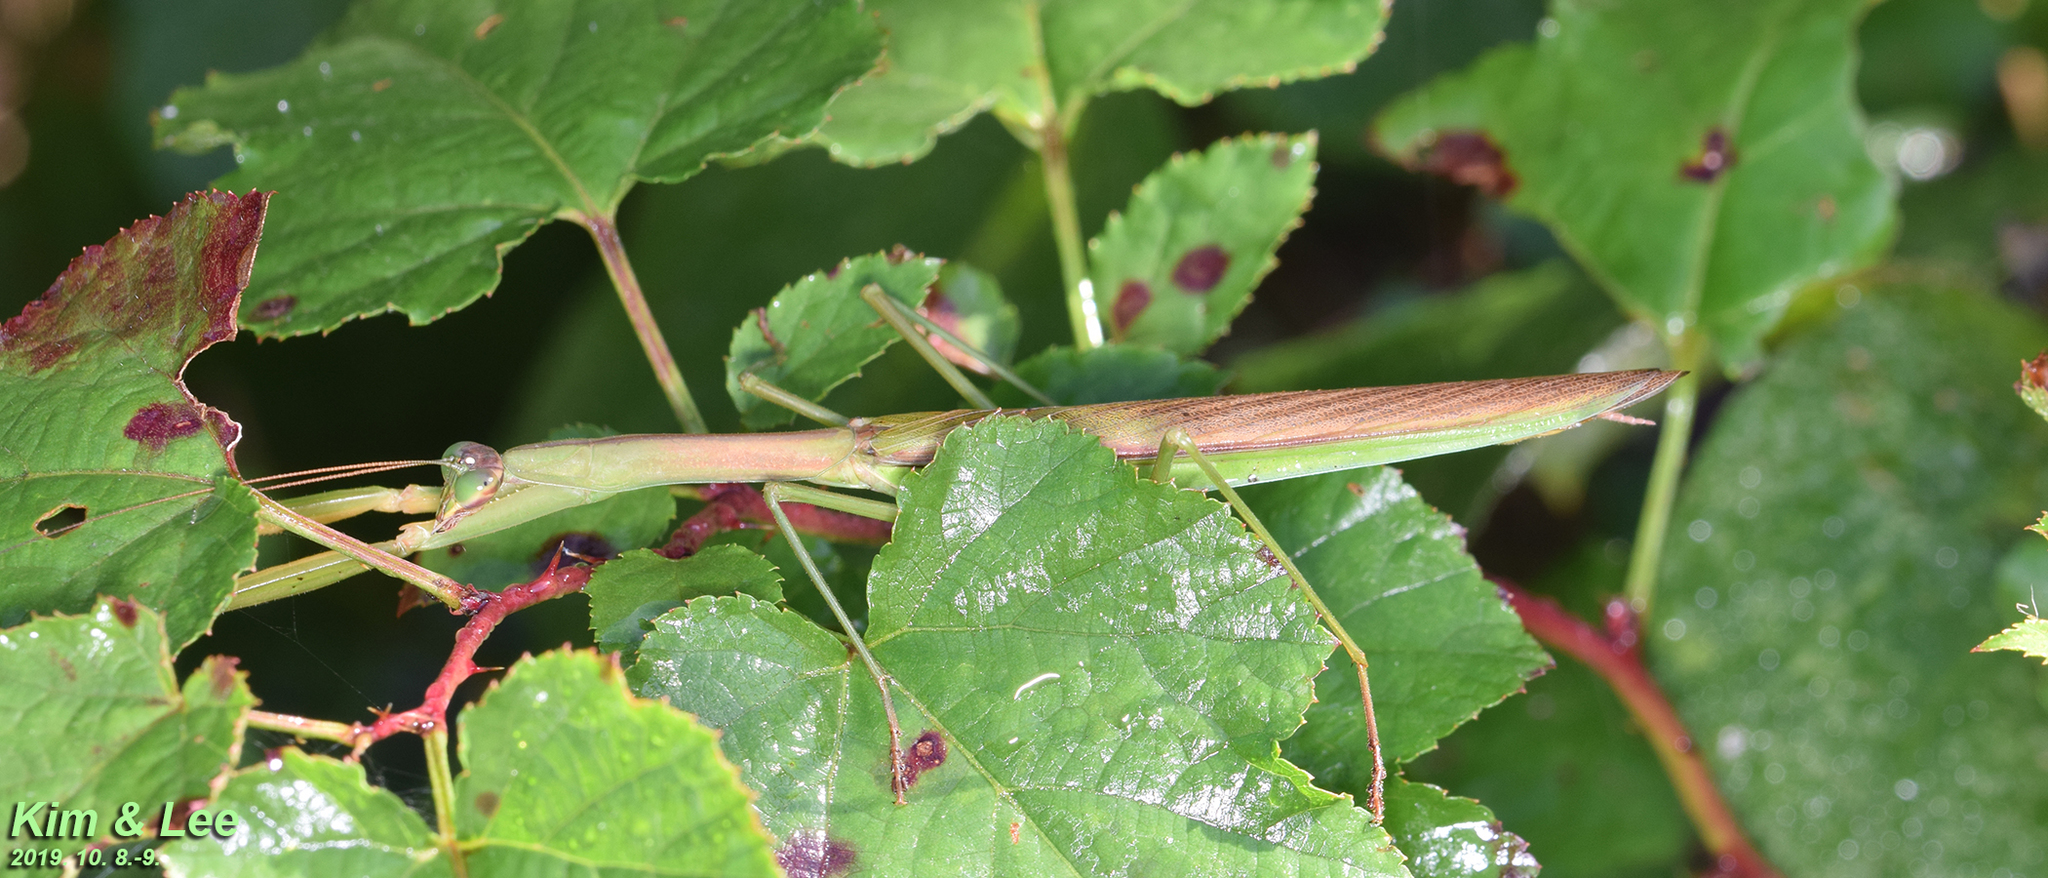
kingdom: Animalia
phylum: Arthropoda
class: Insecta
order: Mantodea
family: Mantidae
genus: Tenodera
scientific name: Tenodera sinensis
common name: Chinese mantis
